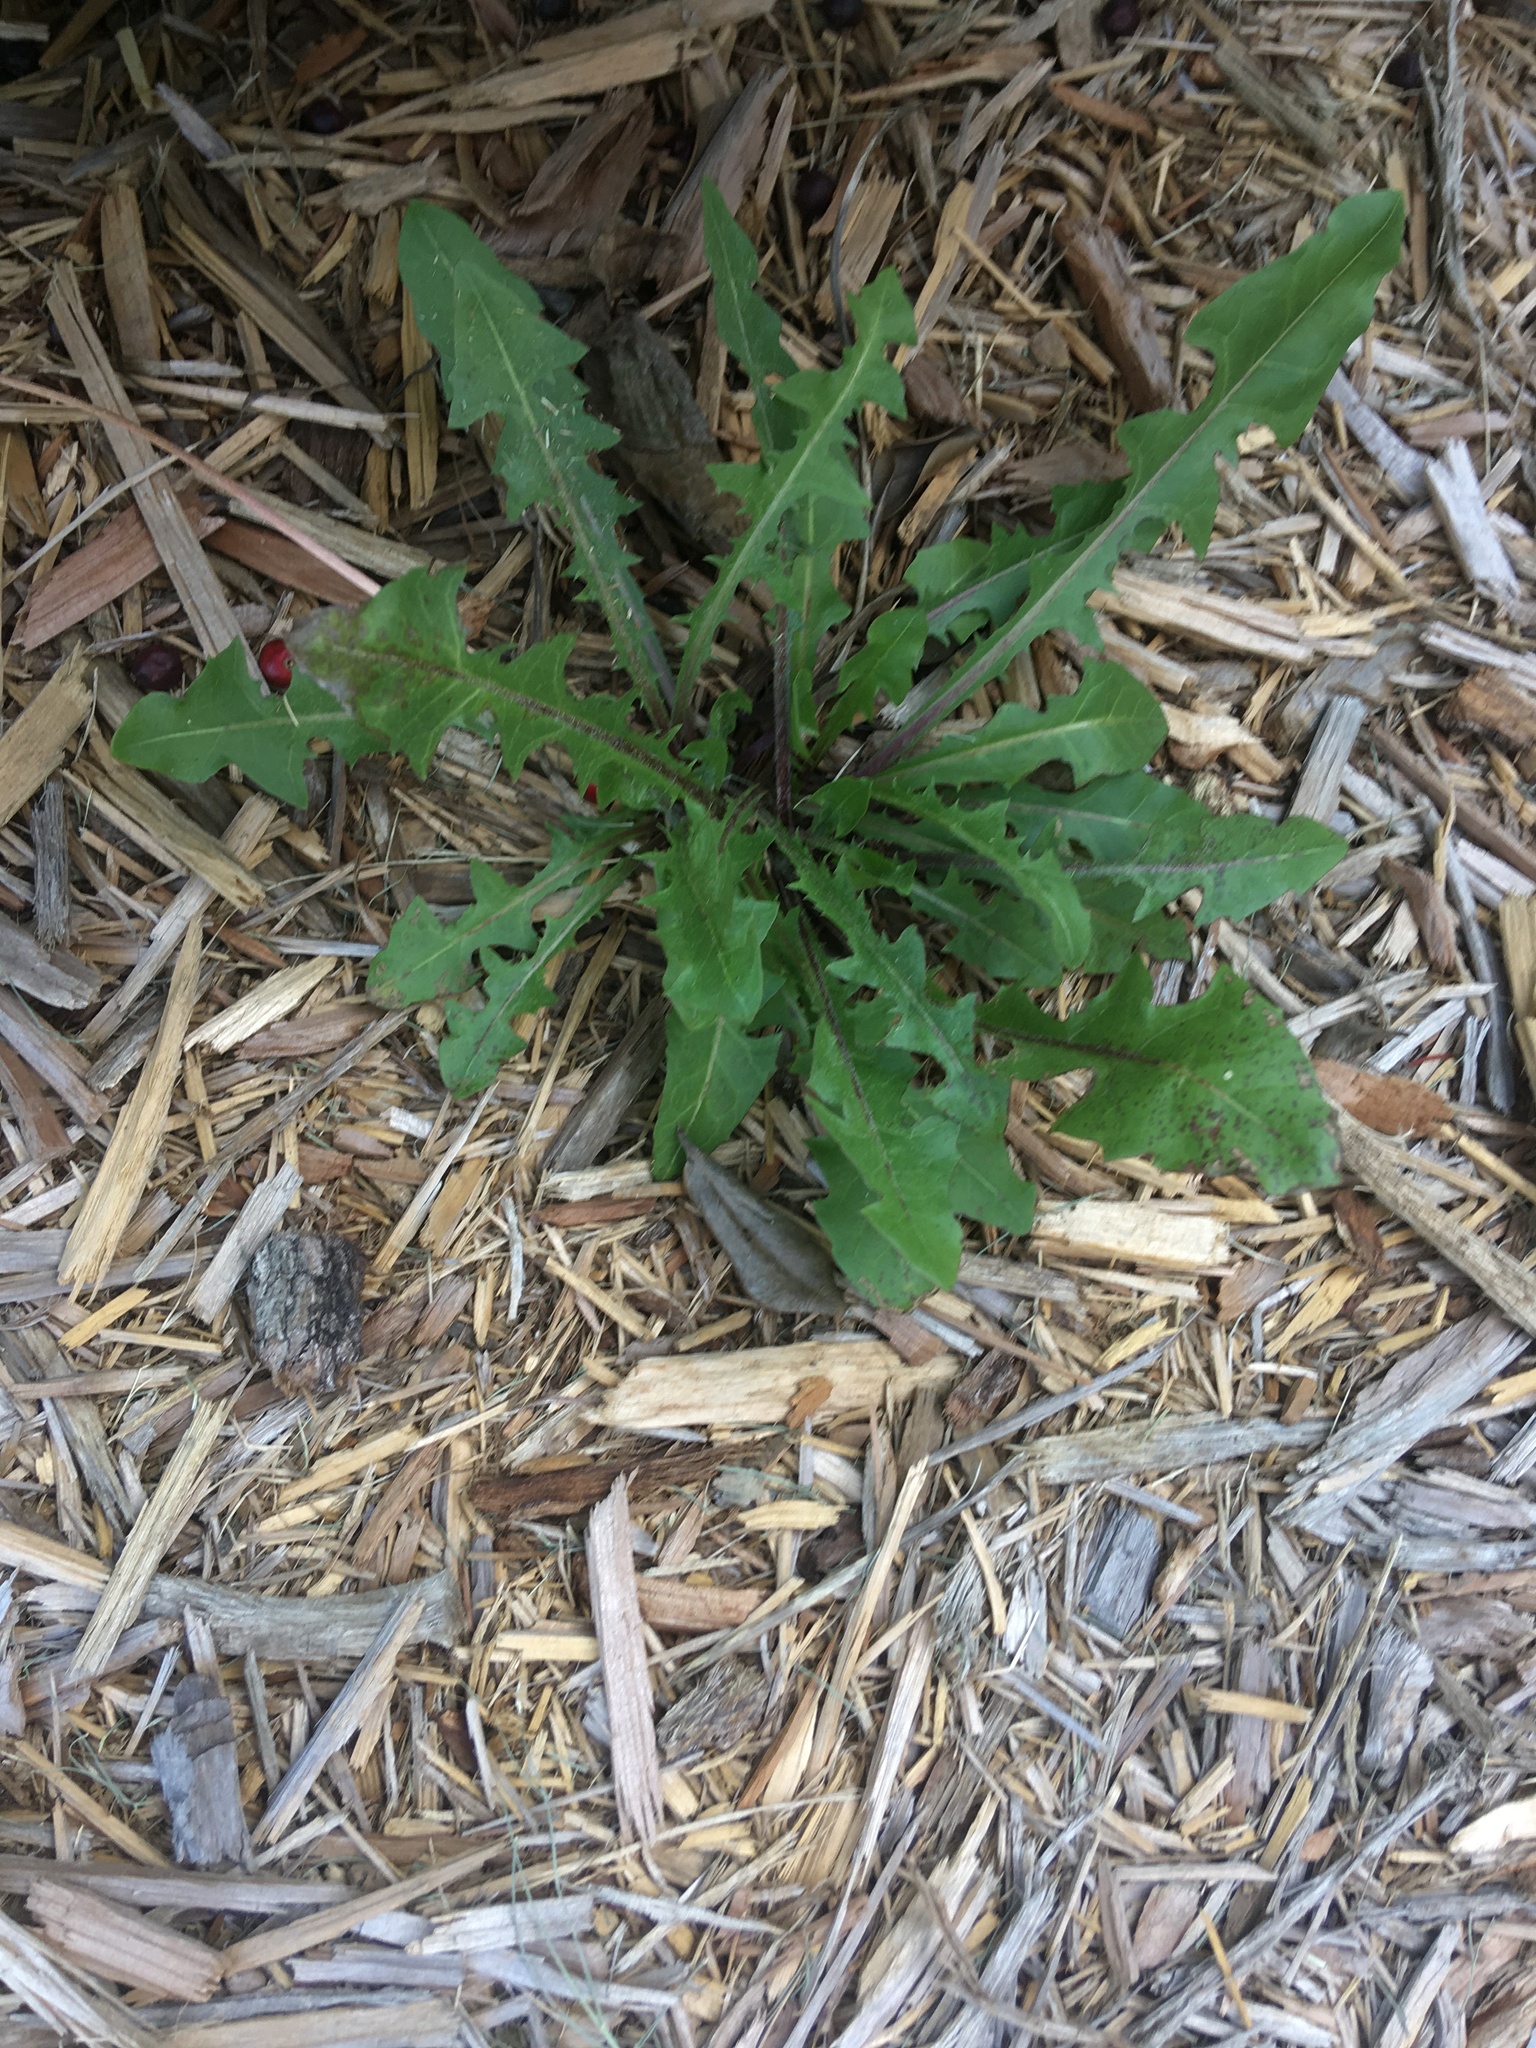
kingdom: Plantae
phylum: Tracheophyta
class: Magnoliopsida
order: Asterales
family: Asteraceae
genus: Taraxacum
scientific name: Taraxacum officinale
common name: Common dandelion
